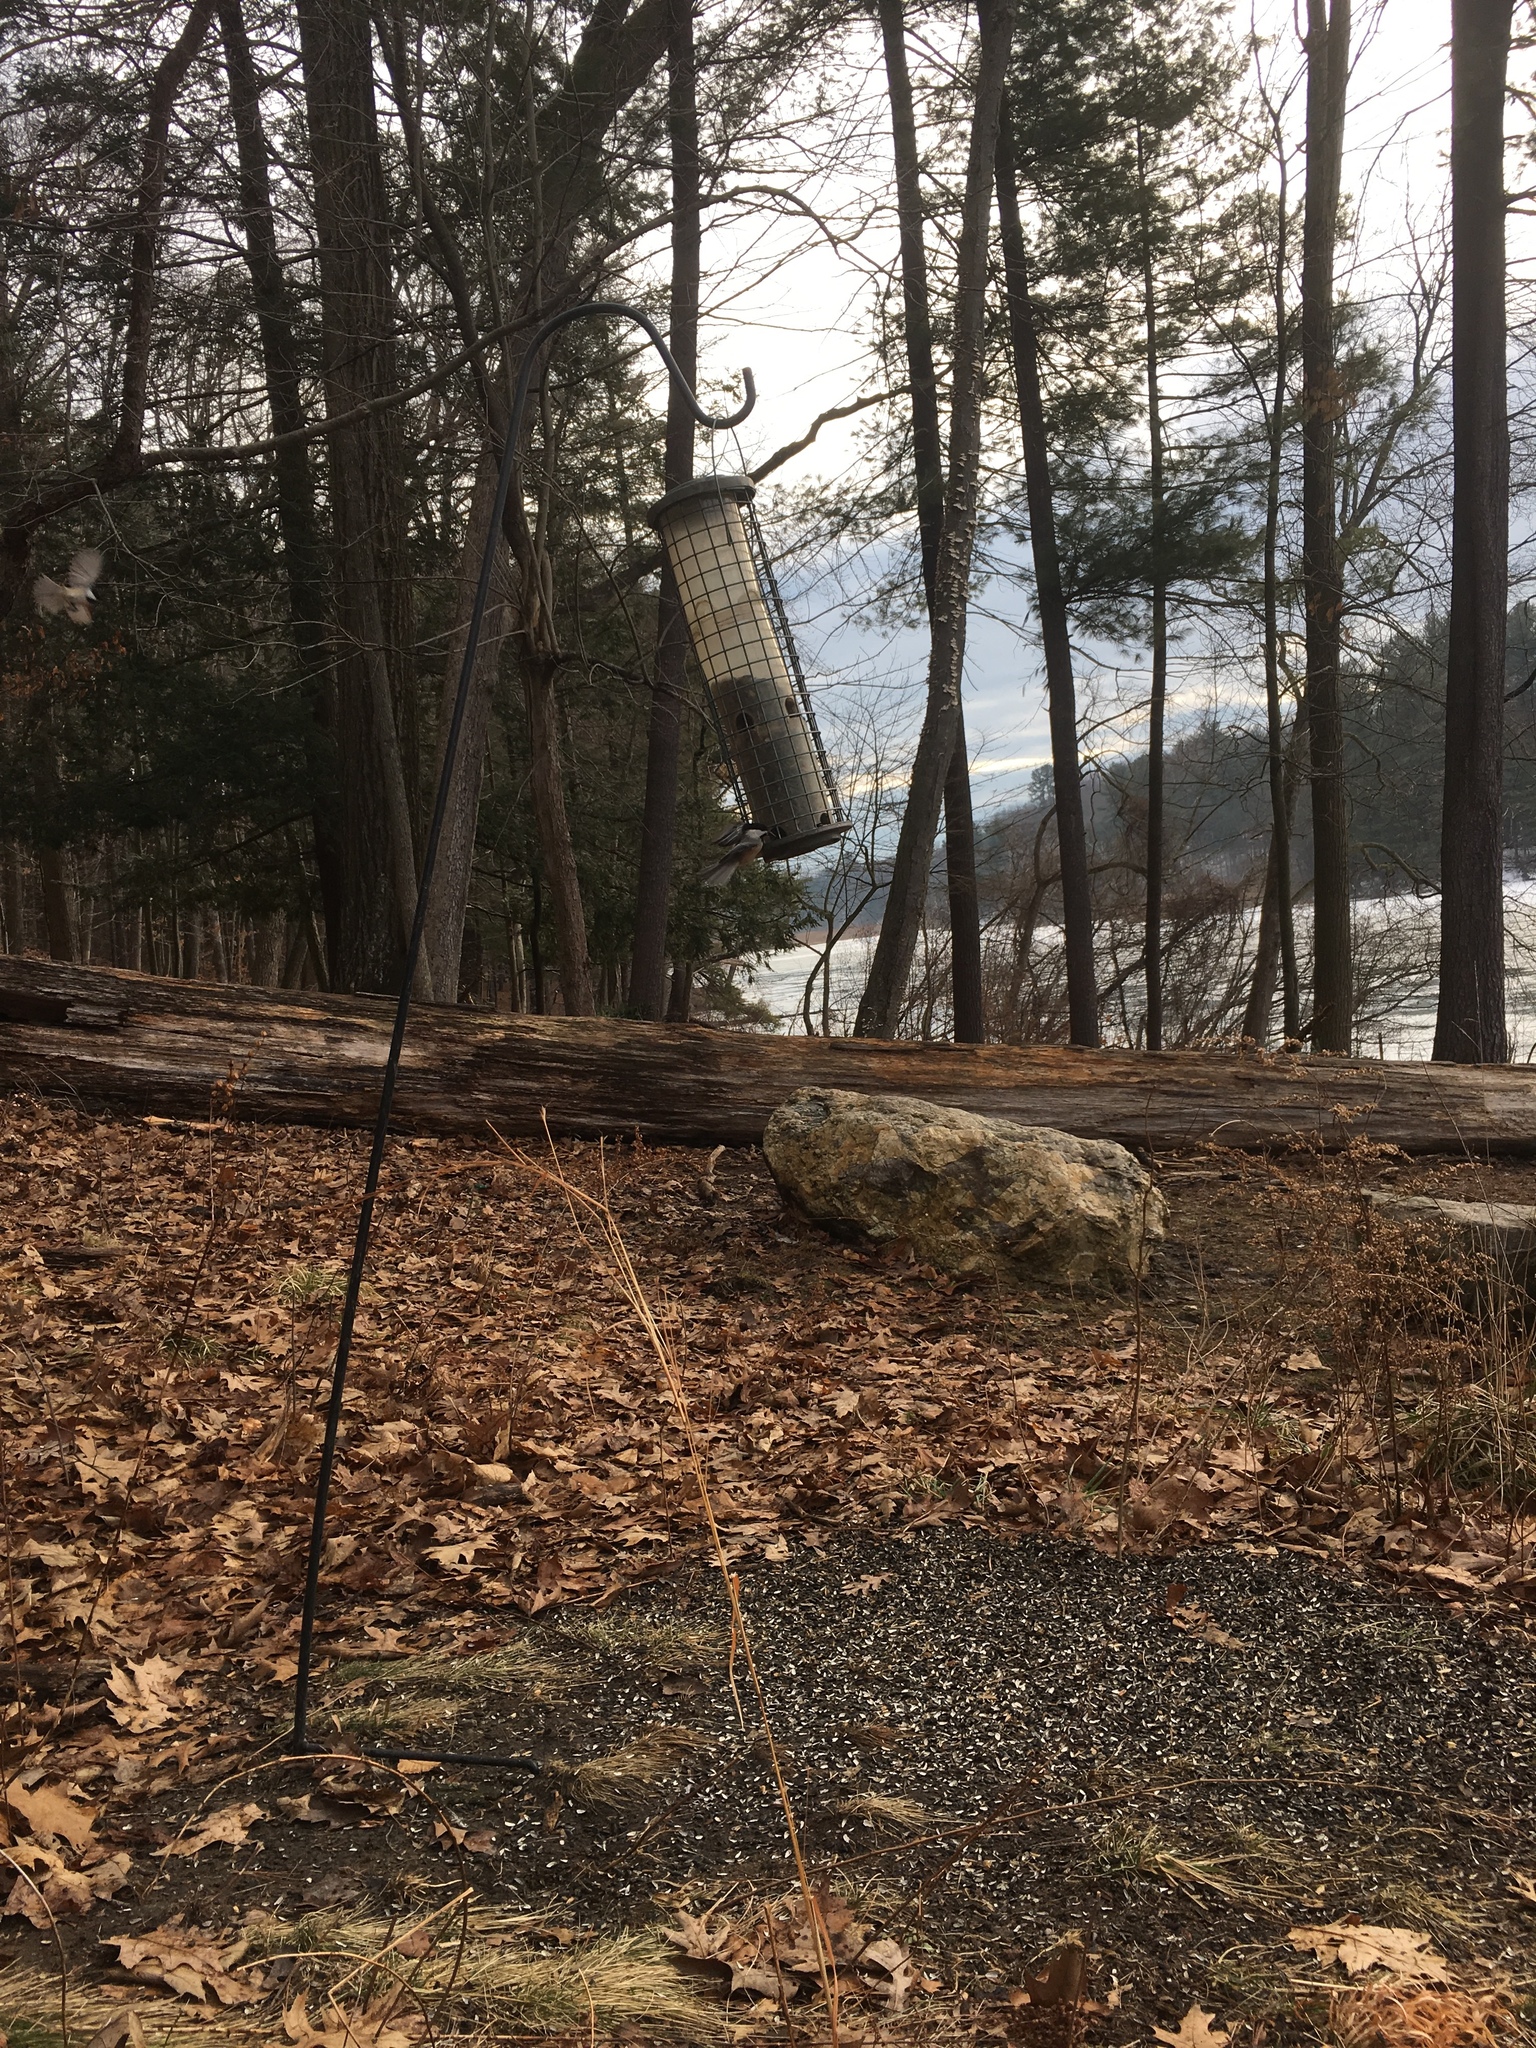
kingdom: Animalia
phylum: Chordata
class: Aves
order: Passeriformes
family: Paridae
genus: Poecile
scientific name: Poecile atricapillus
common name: Black-capped chickadee
